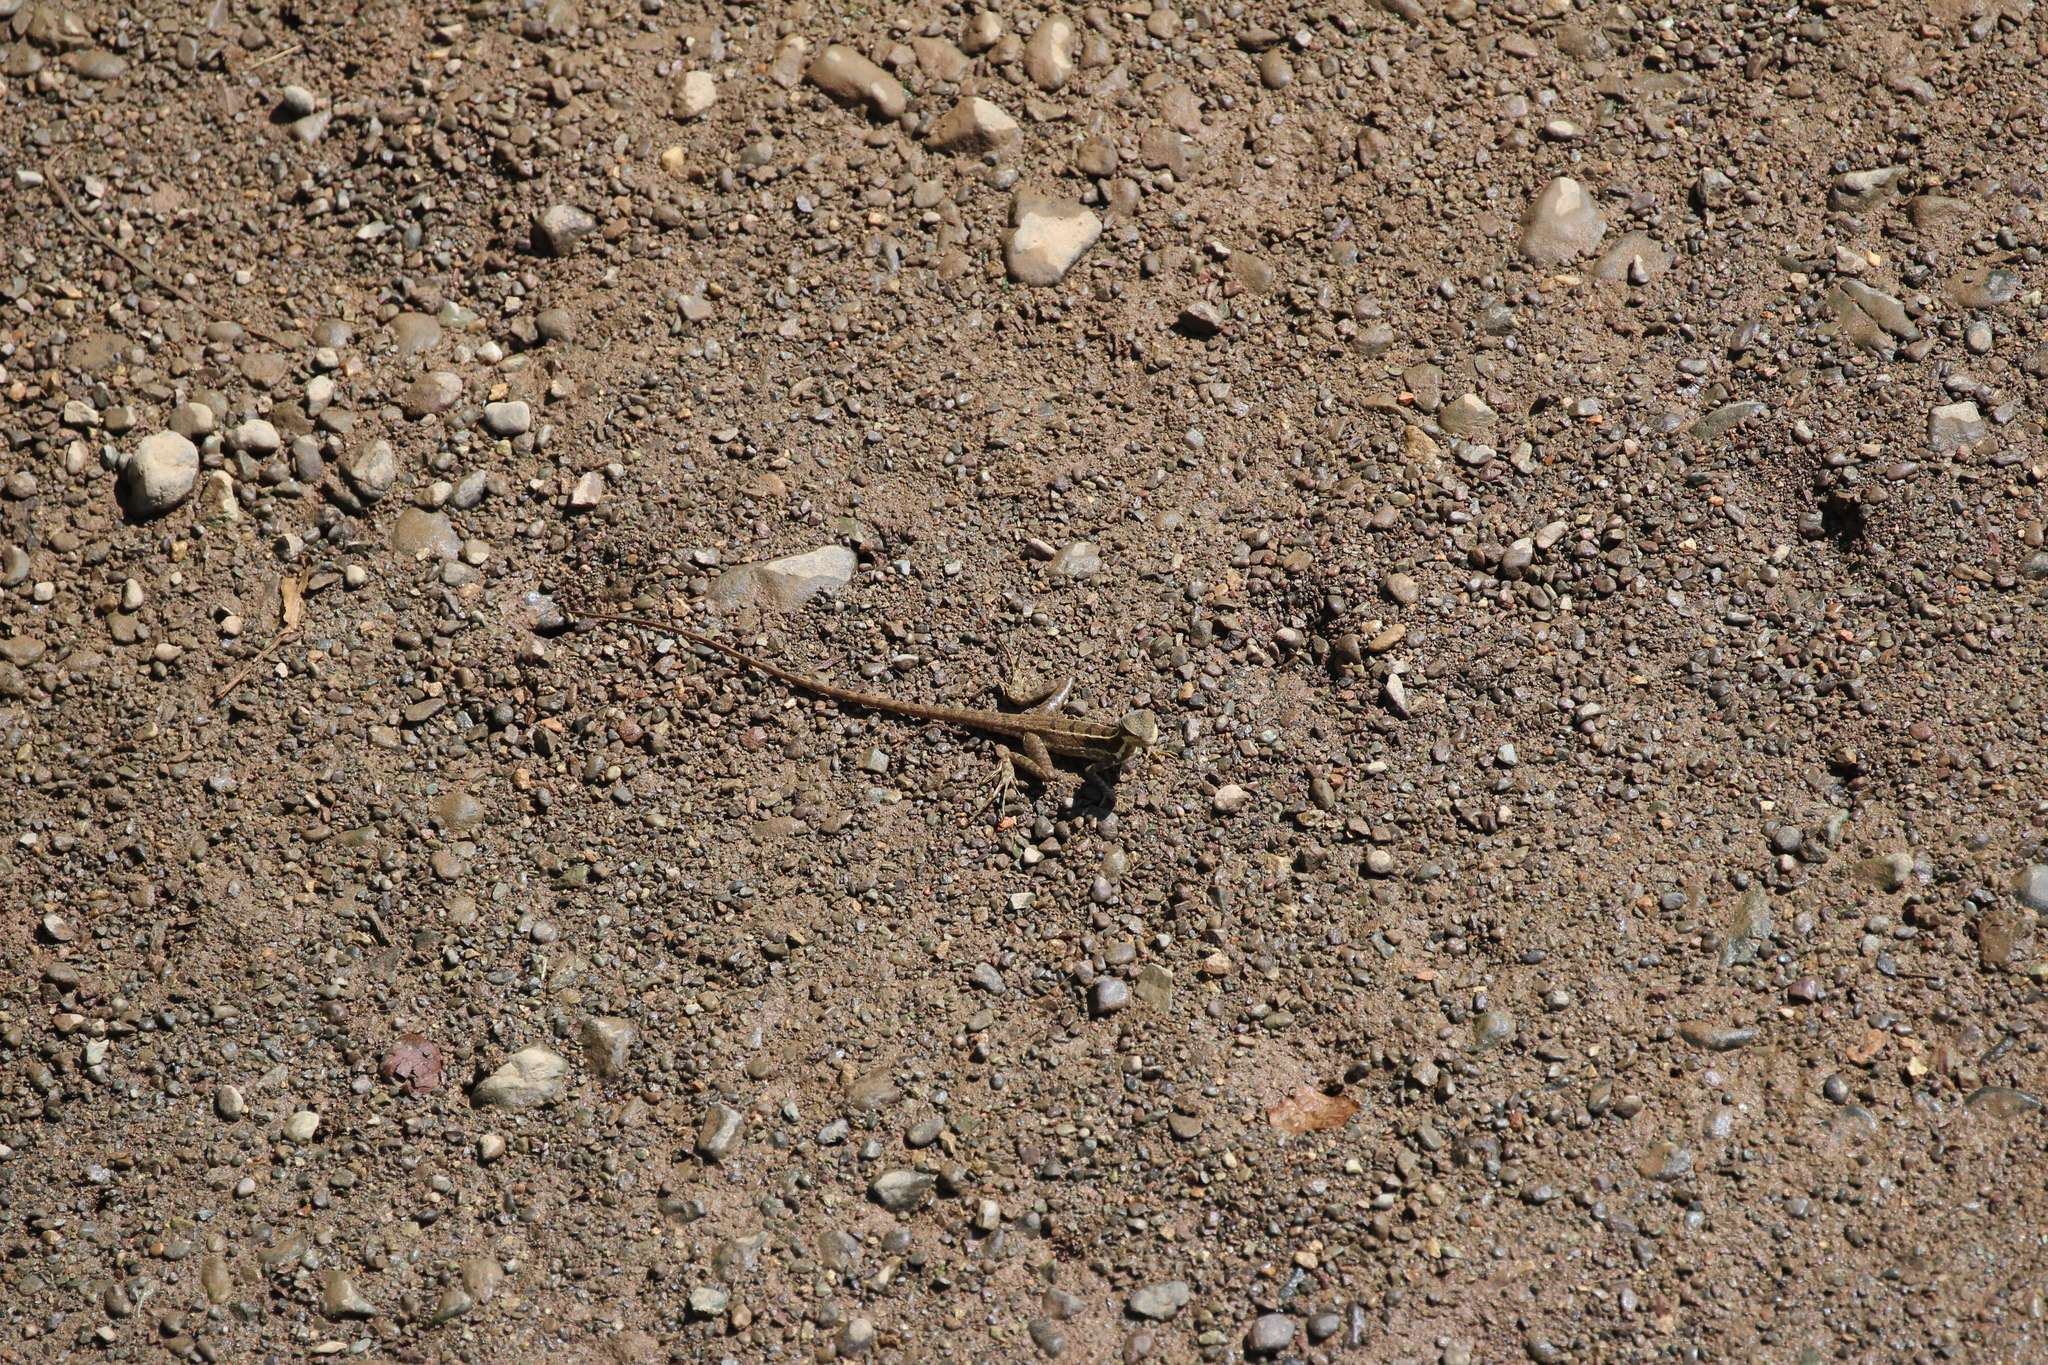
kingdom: Animalia
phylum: Chordata
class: Squamata
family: Corytophanidae
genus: Basiliscus
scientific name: Basiliscus basiliscus
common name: Common basilisk
